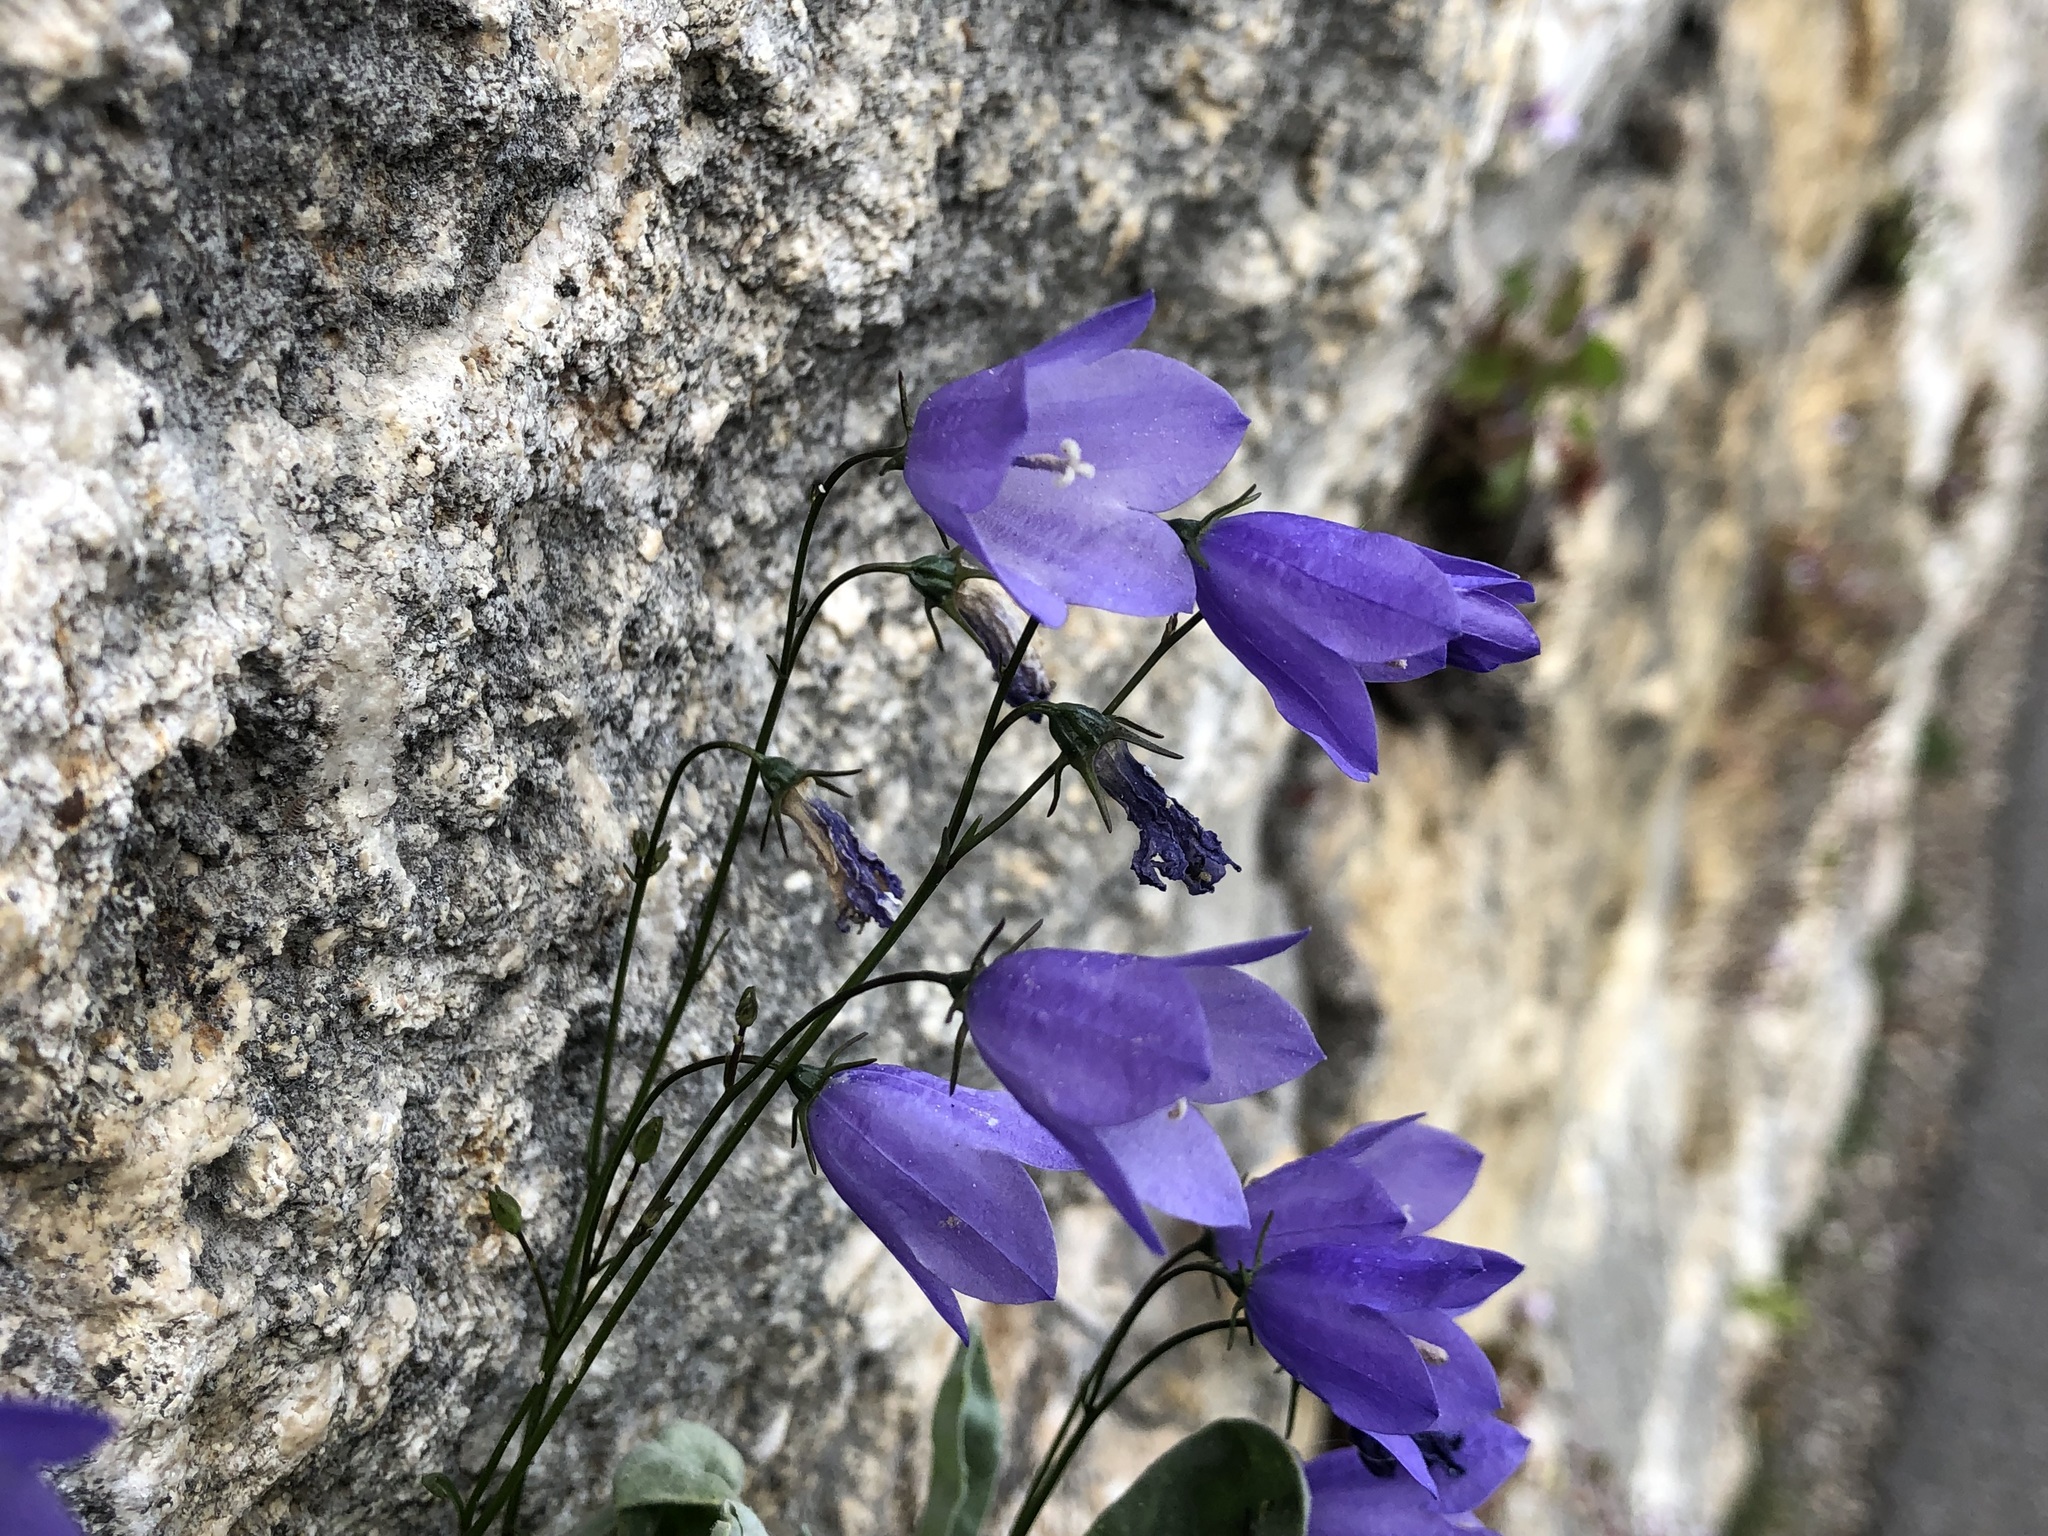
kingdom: Plantae
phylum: Tracheophyta
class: Magnoliopsida
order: Asterales
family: Campanulaceae
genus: Campanula
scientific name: Campanula rotundifolia
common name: Harebell
